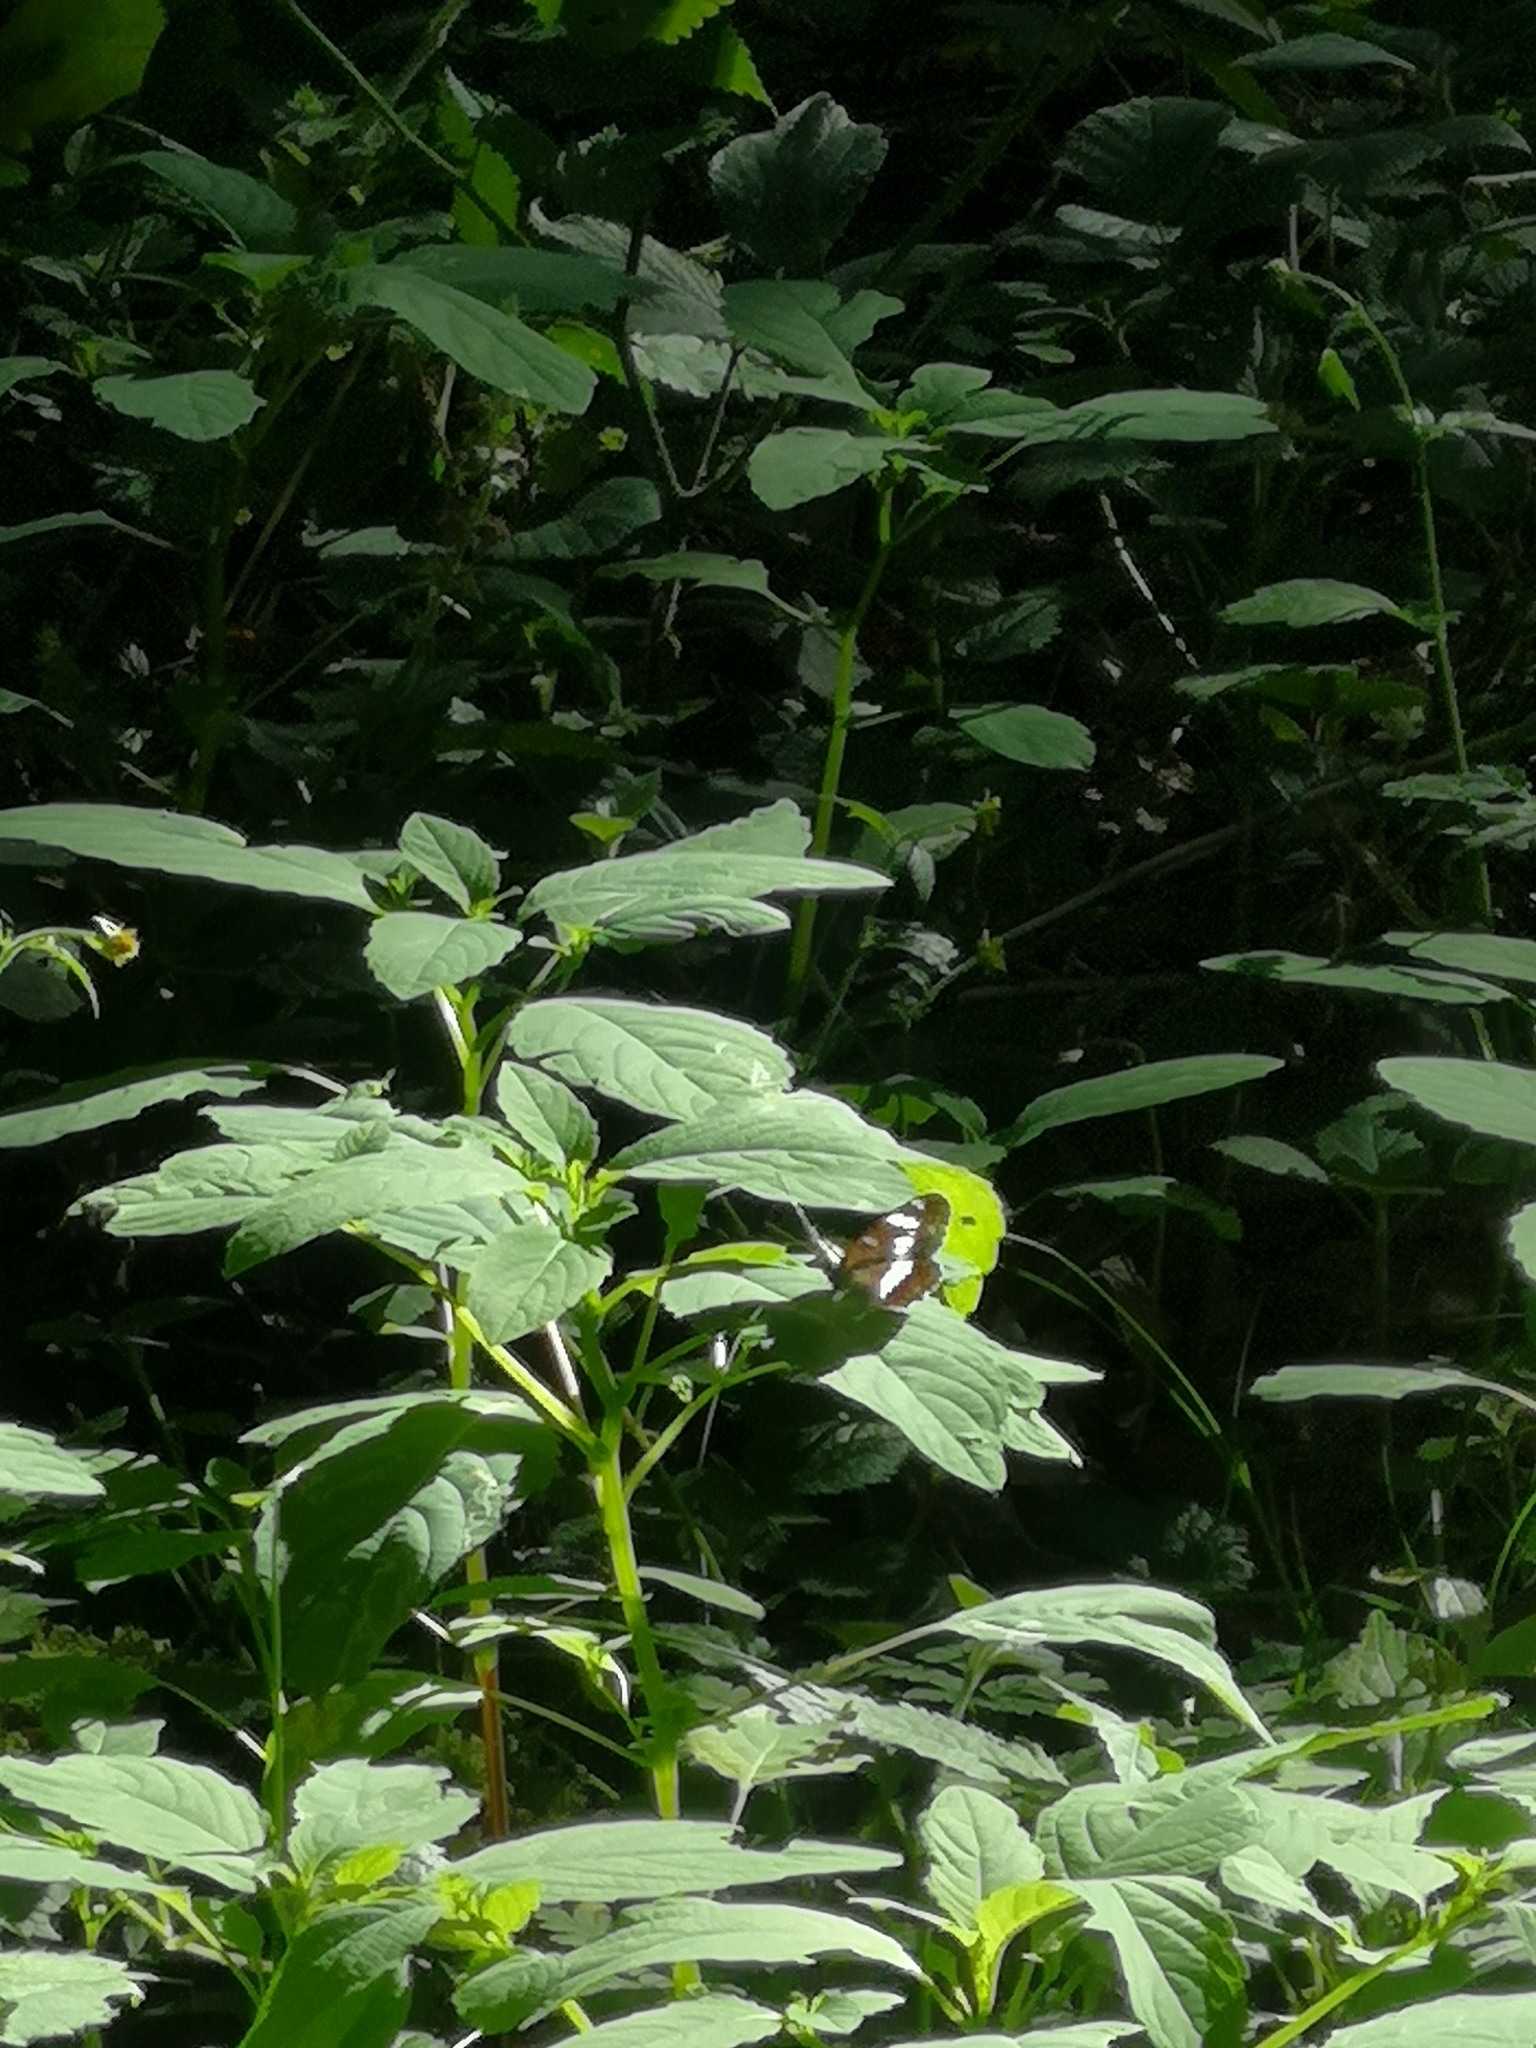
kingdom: Animalia
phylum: Arthropoda
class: Insecta
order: Lepidoptera
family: Nymphalidae
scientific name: Nymphalidae
